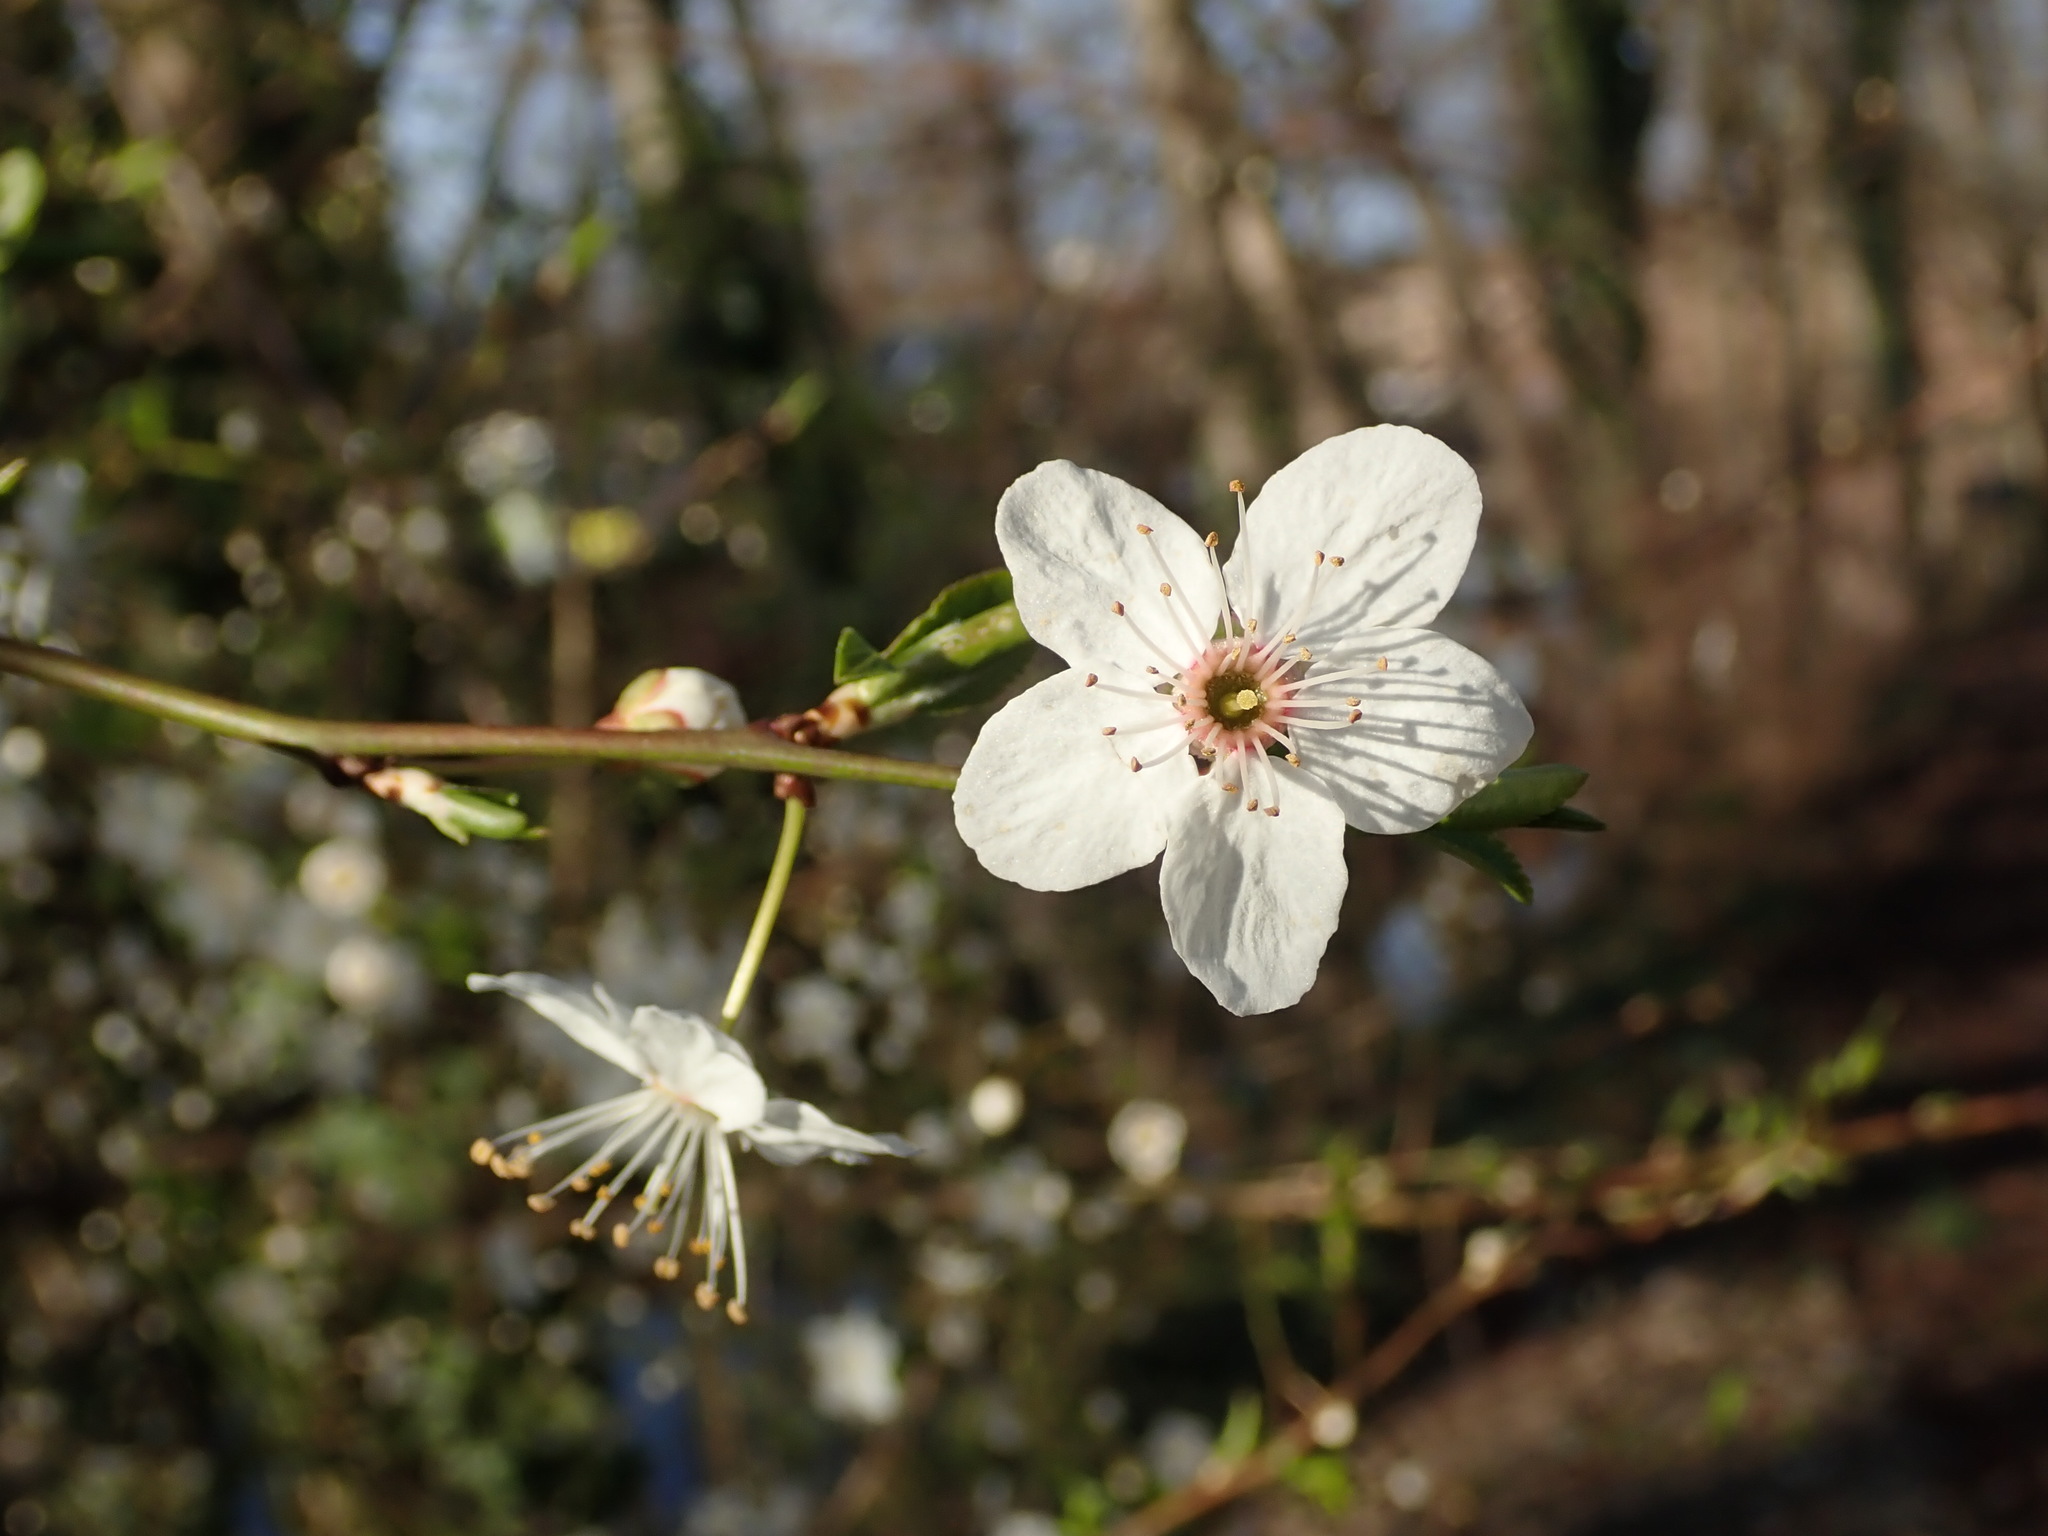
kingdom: Plantae
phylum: Tracheophyta
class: Magnoliopsida
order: Rosales
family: Rosaceae
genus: Prunus
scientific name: Prunus cerasifera
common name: Cherry plum
